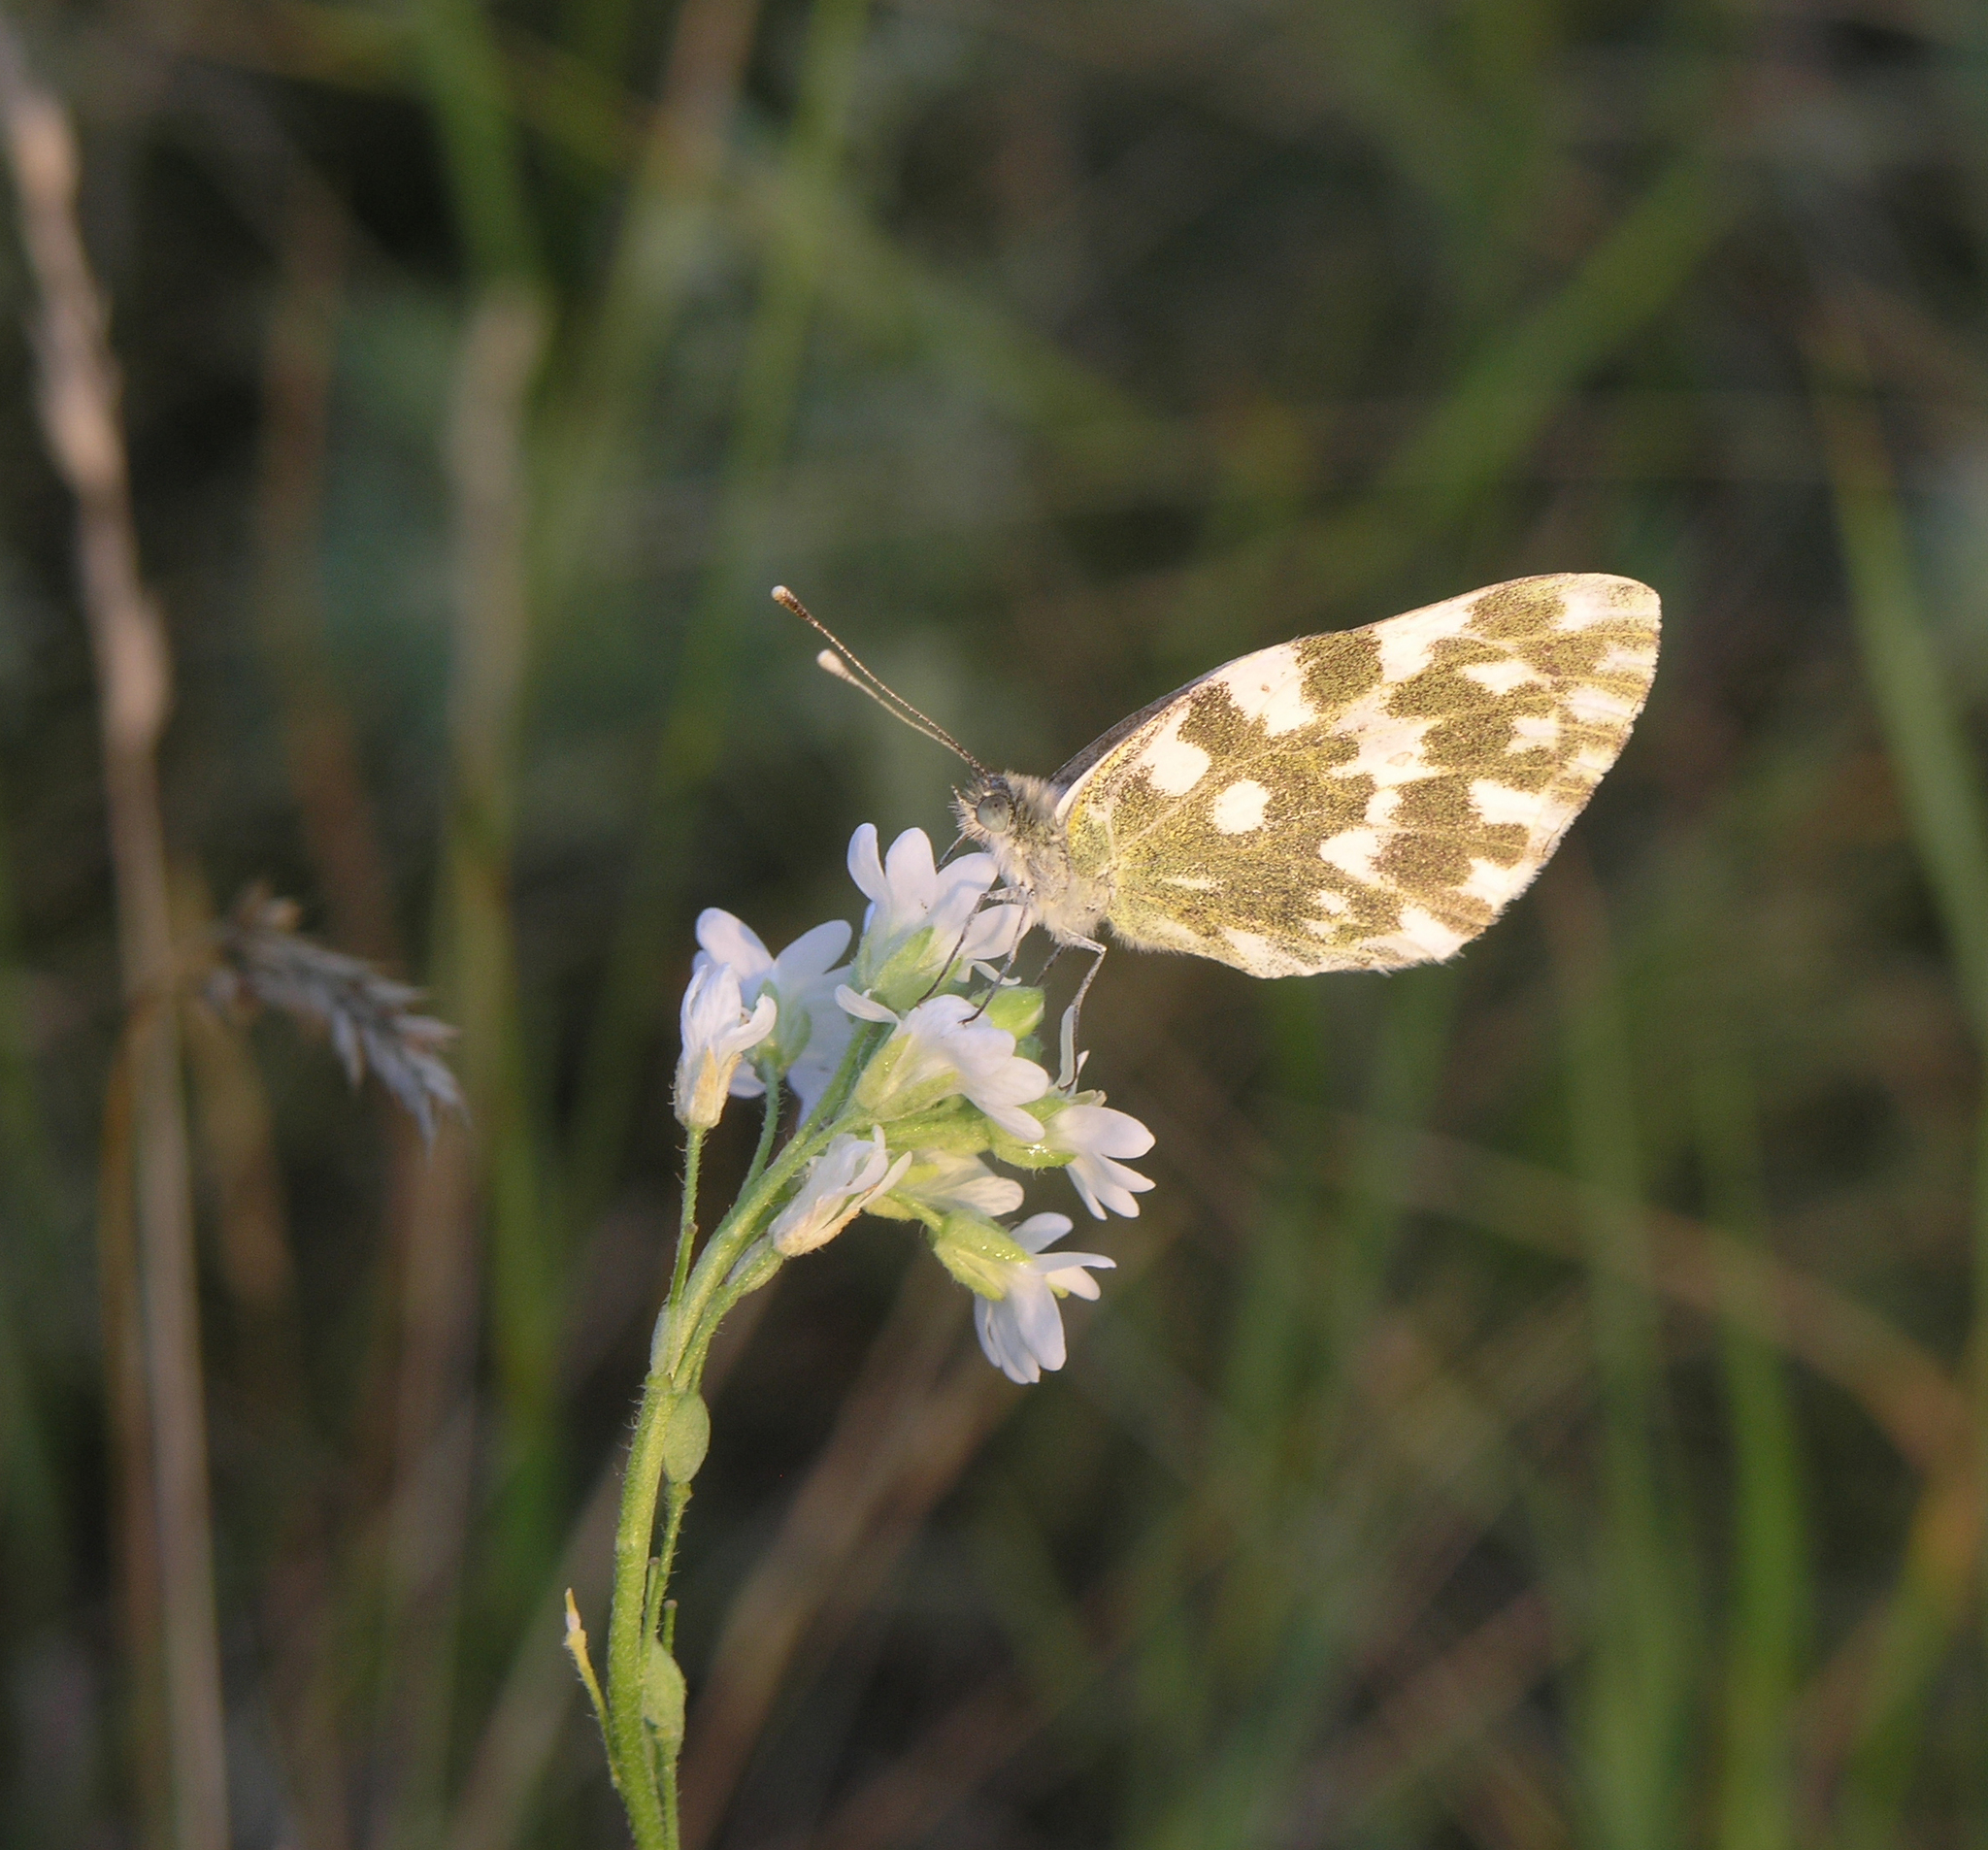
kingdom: Plantae
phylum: Tracheophyta
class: Magnoliopsida
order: Brassicales
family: Brassicaceae
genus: Berteroa
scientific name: Berteroa incana
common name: Hoary alison
